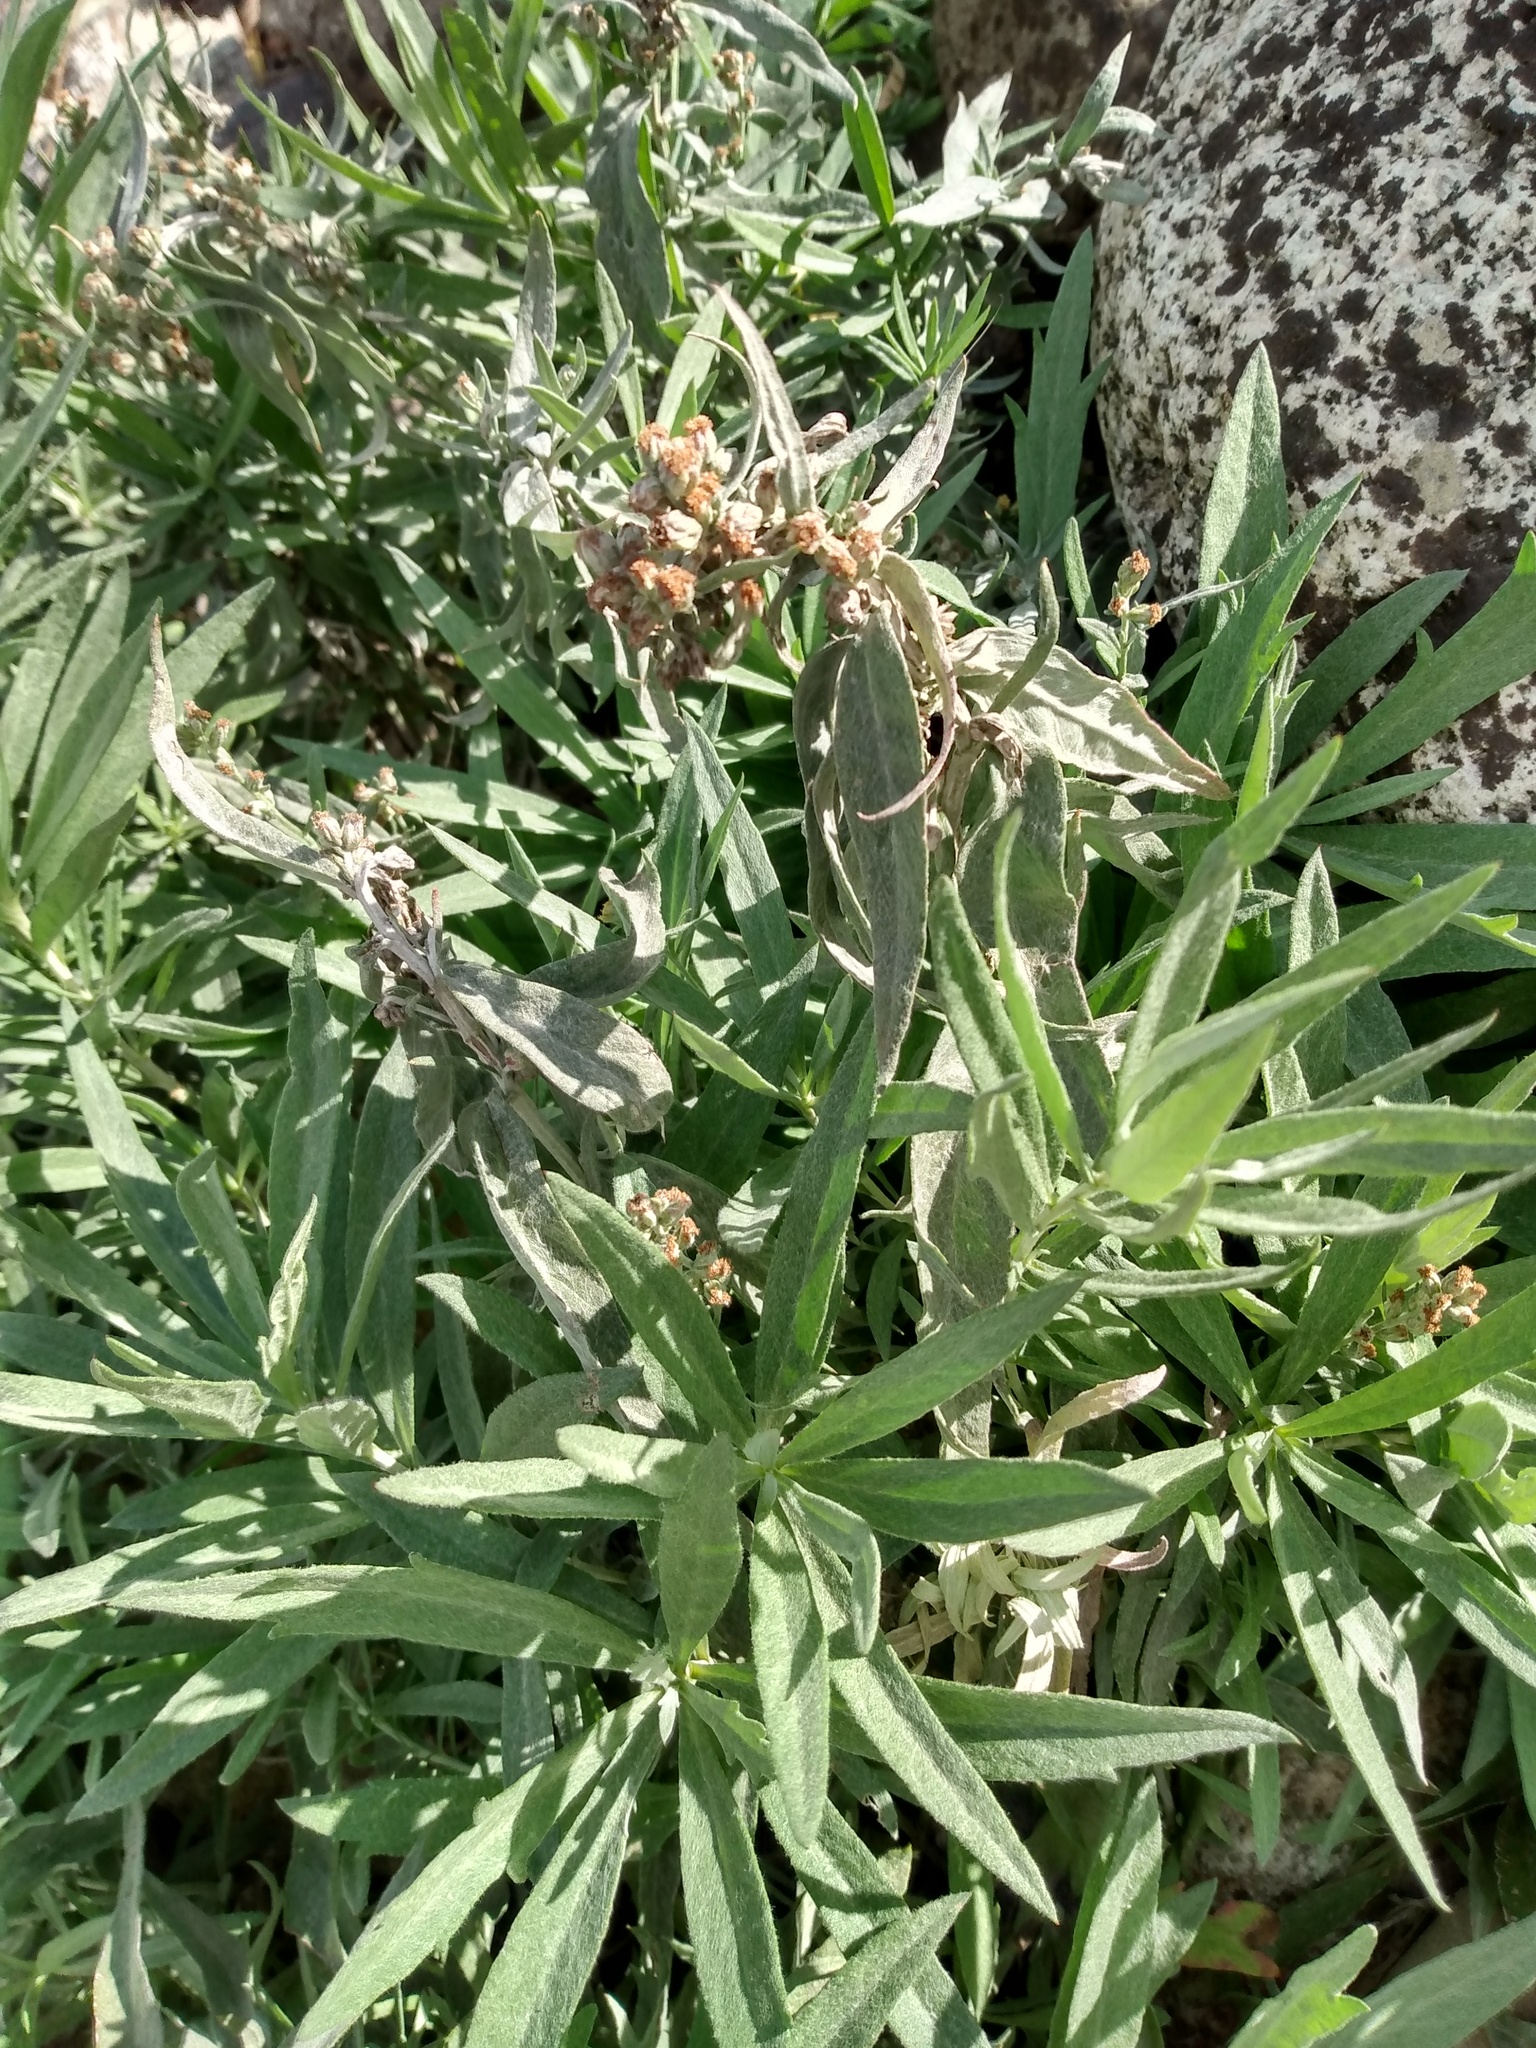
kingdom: Plantae
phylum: Tracheophyta
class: Magnoliopsida
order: Asterales
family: Asteraceae
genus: Artemisia
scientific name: Artemisia ludoviciana
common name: Western mugwort
